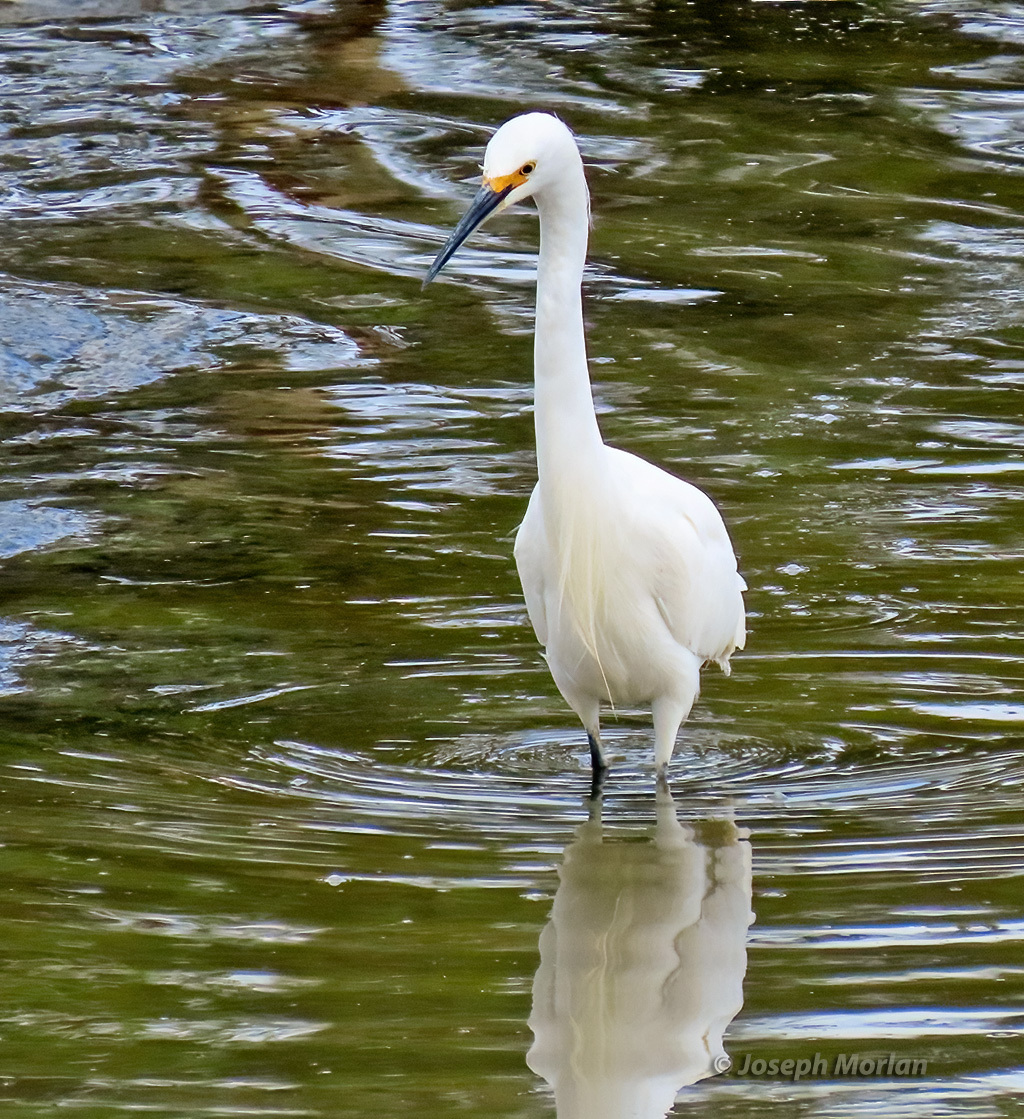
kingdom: Animalia
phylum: Chordata
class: Aves
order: Pelecaniformes
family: Ardeidae
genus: Egretta
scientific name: Egretta thula
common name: Snowy egret
